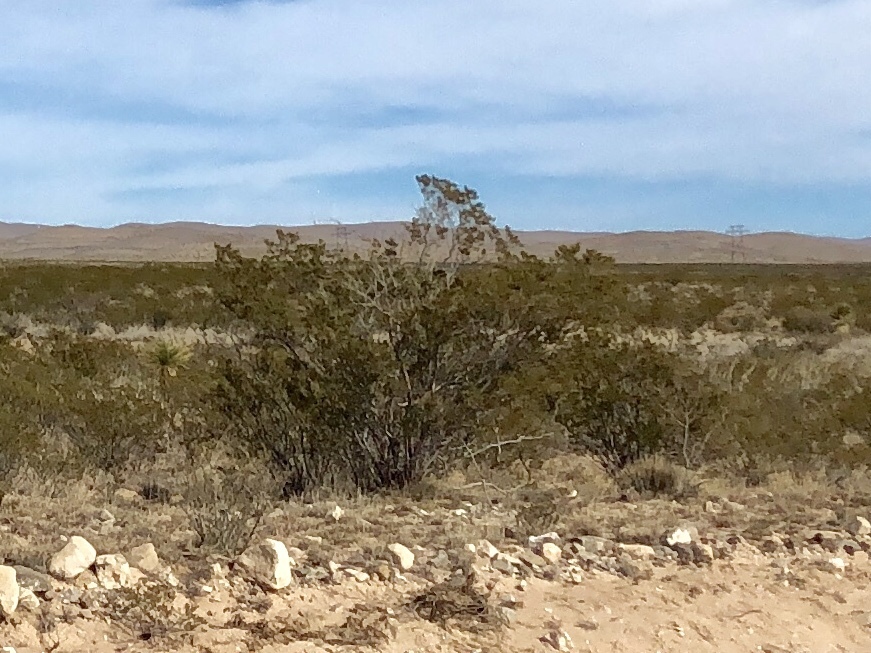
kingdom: Plantae
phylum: Tracheophyta
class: Magnoliopsida
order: Zygophyllales
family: Zygophyllaceae
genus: Larrea
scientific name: Larrea tridentata
